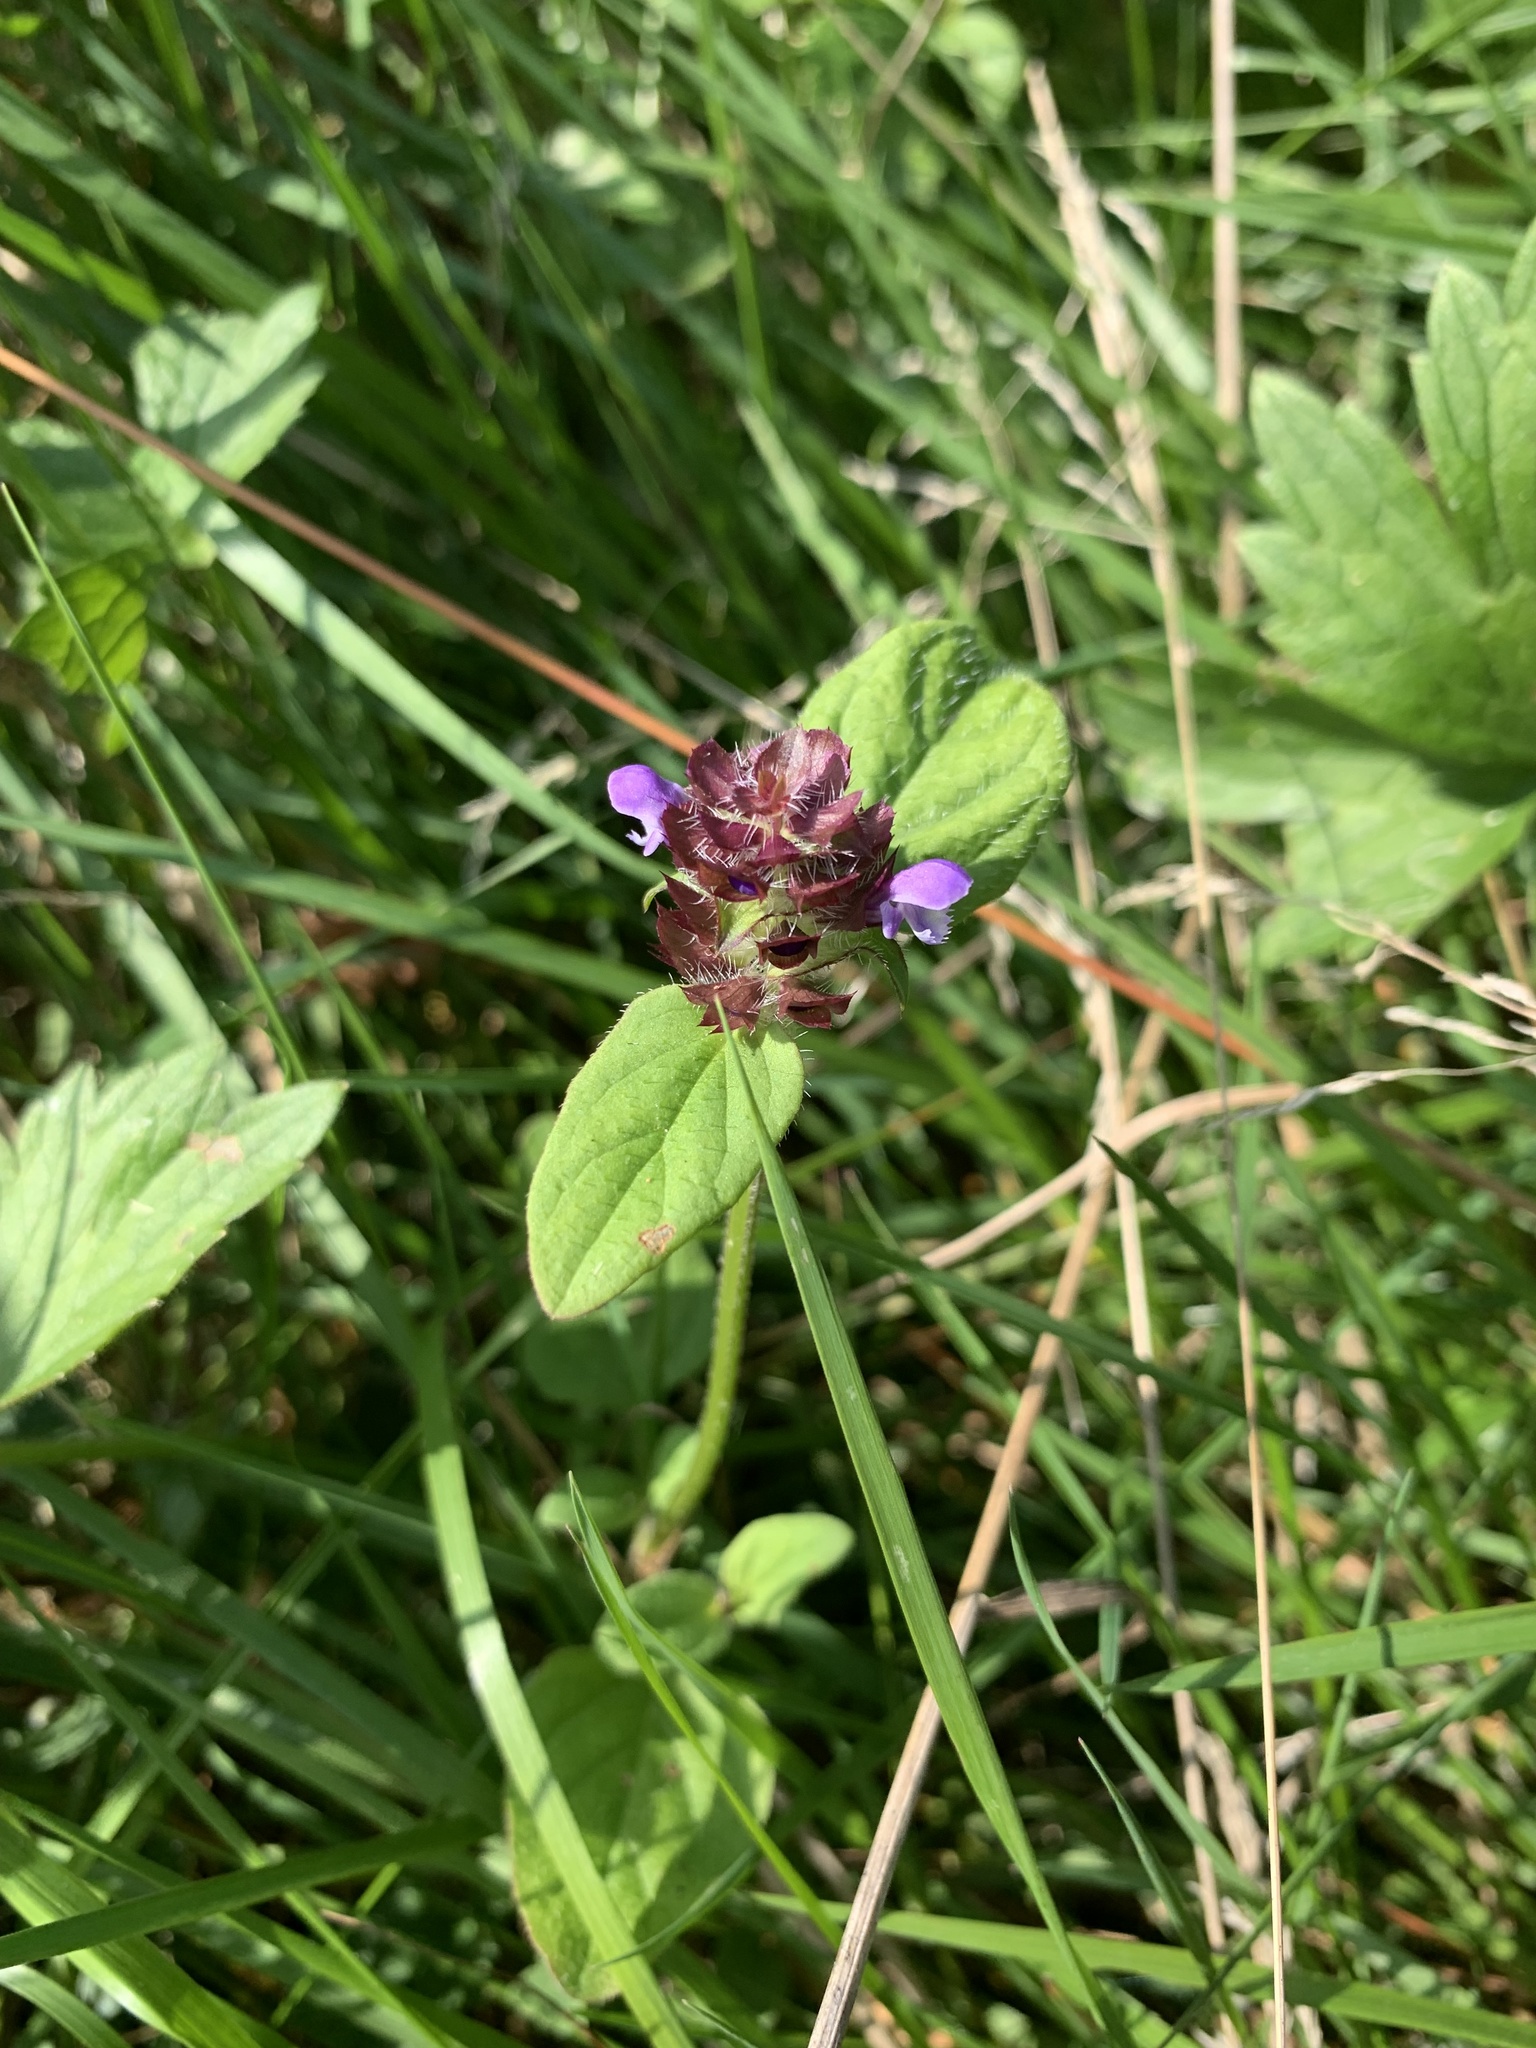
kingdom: Plantae
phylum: Tracheophyta
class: Magnoliopsida
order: Lamiales
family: Lamiaceae
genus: Prunella
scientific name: Prunella vulgaris
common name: Heal-all
